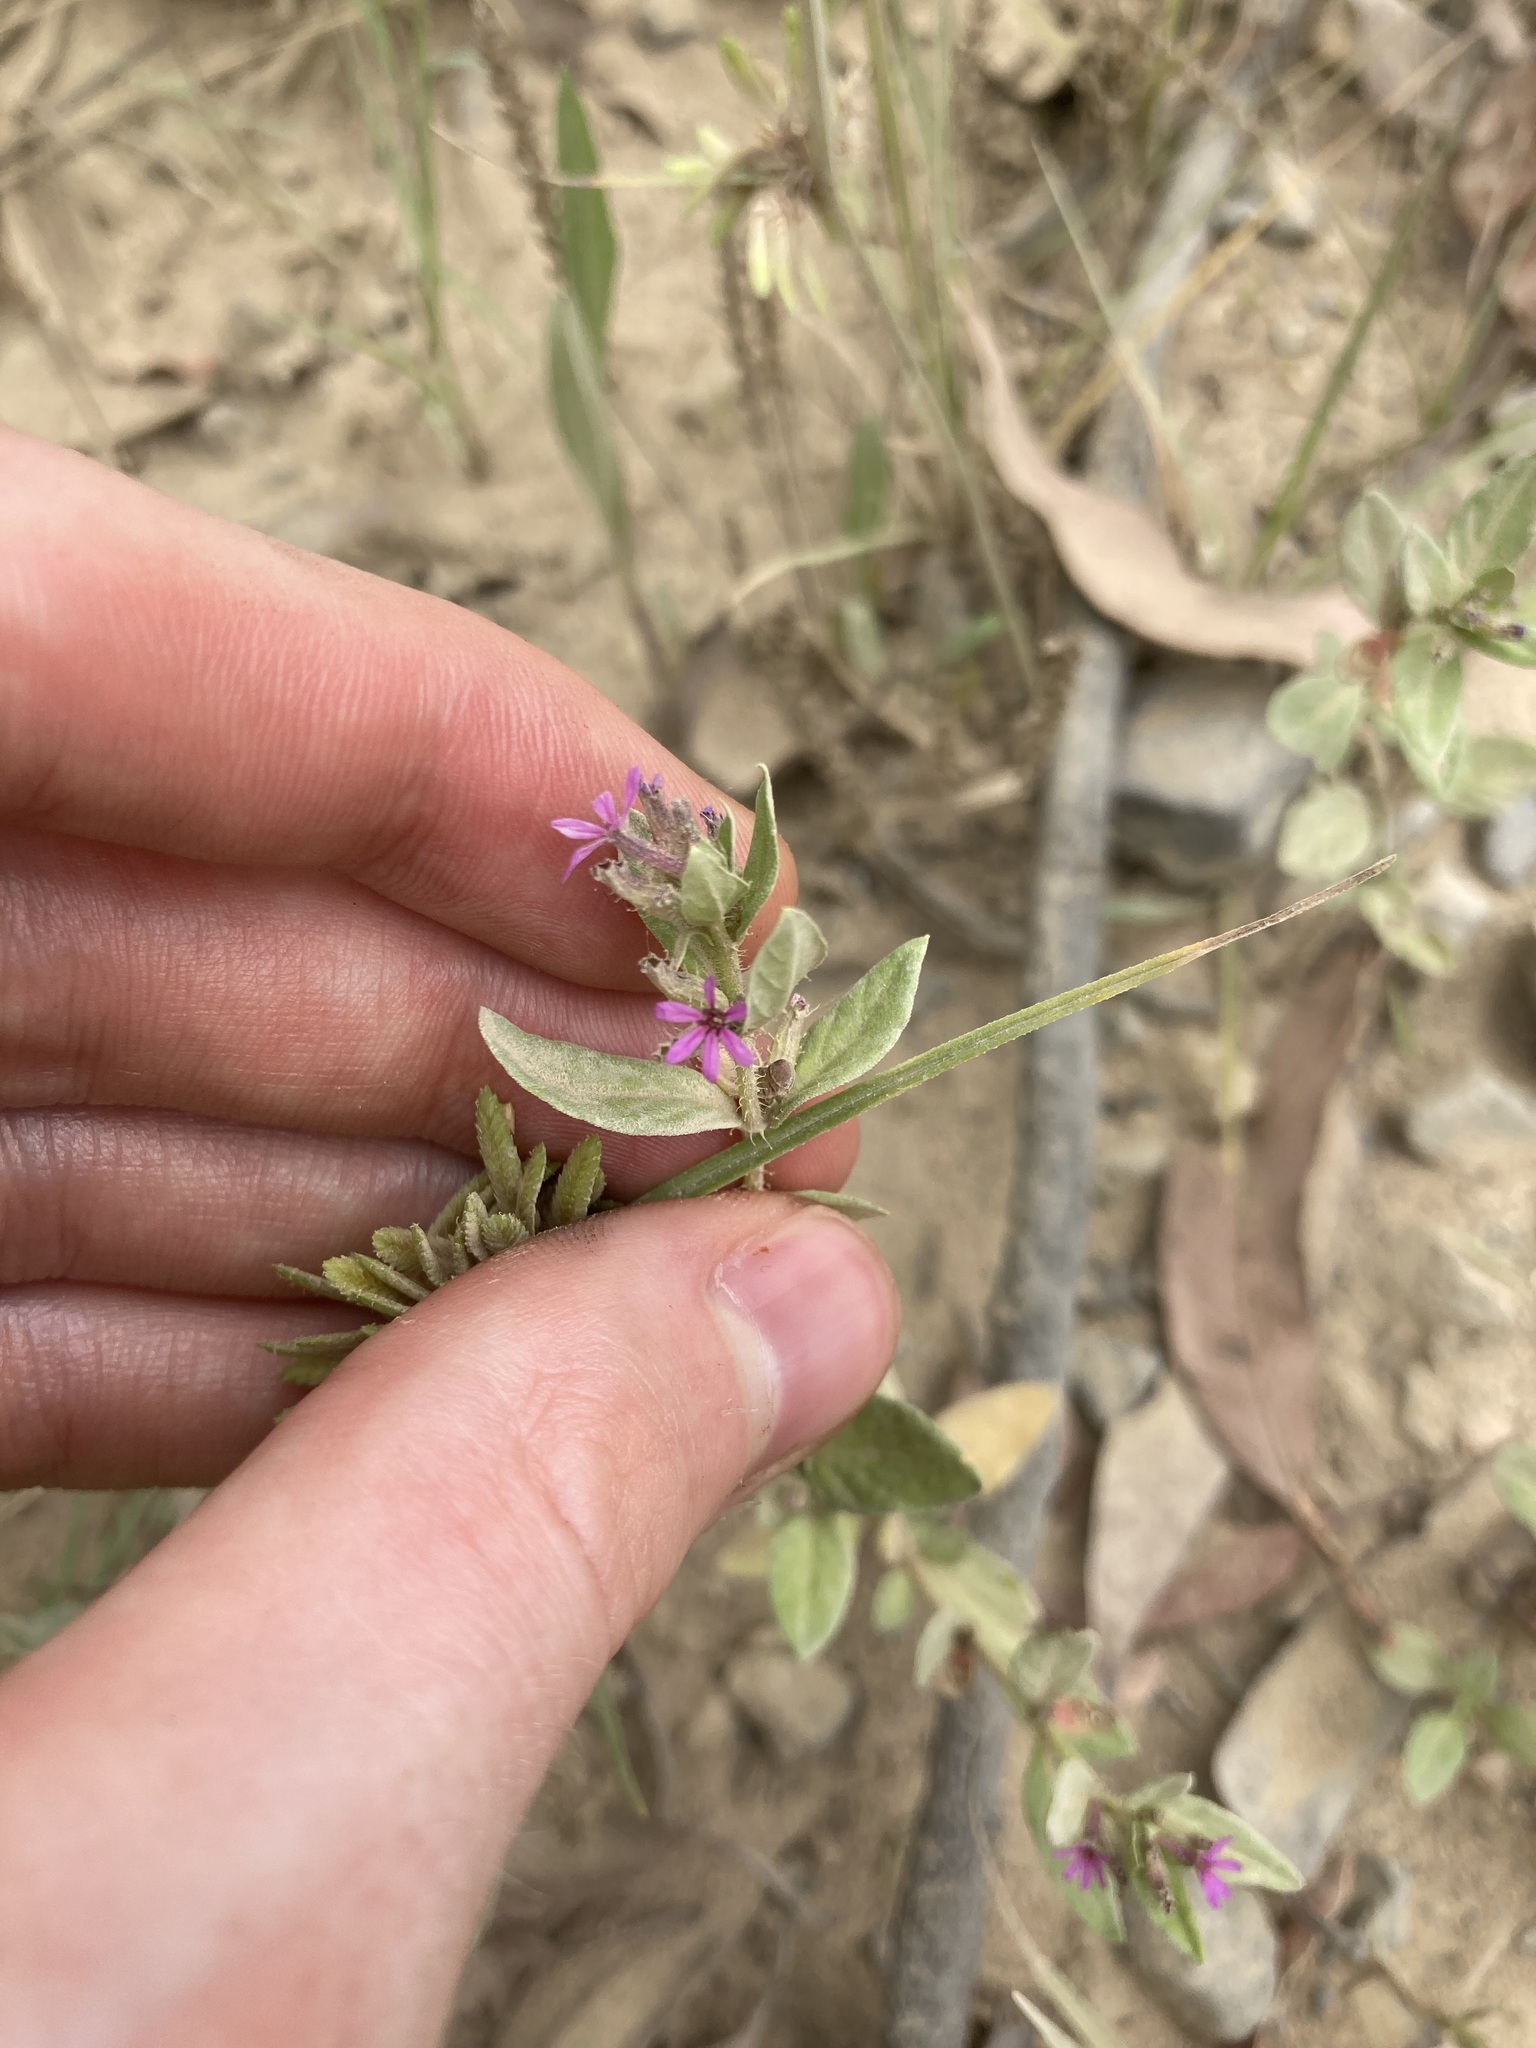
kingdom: Plantae
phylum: Tracheophyta
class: Magnoliopsida
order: Myrtales
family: Lythraceae
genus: Cuphea
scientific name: Cuphea carthagenensis
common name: Colombian waxweed
